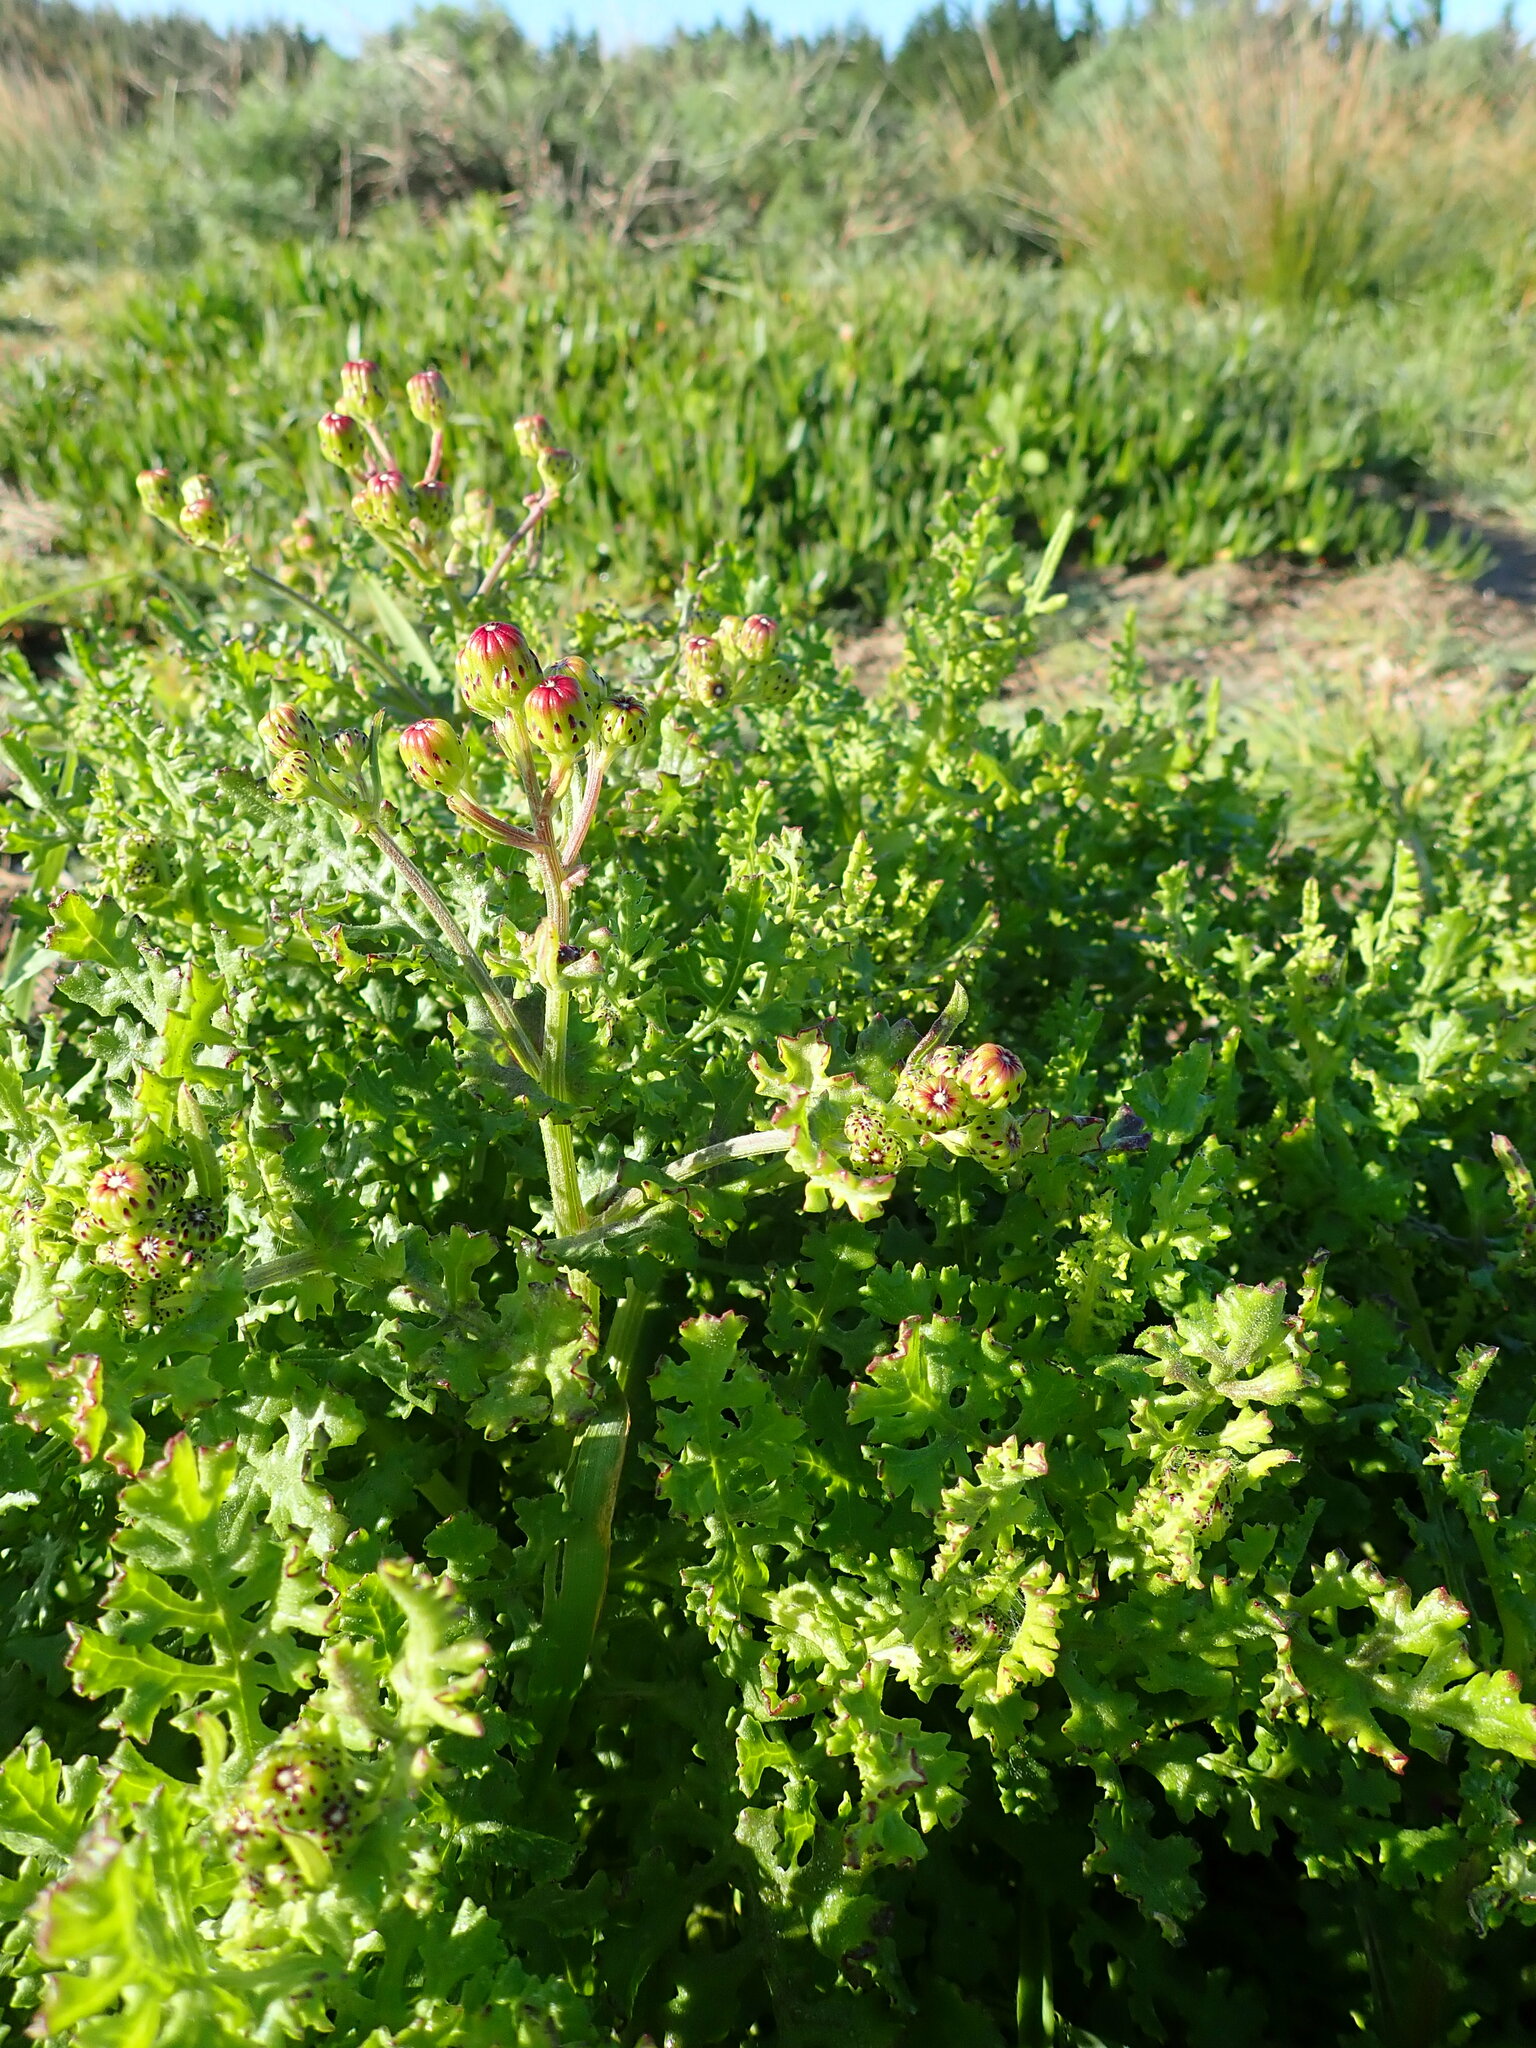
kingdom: Plantae
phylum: Tracheophyta
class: Magnoliopsida
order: Asterales
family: Asteraceae
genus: Senecio
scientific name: Senecio elegans
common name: Purple groundsel
